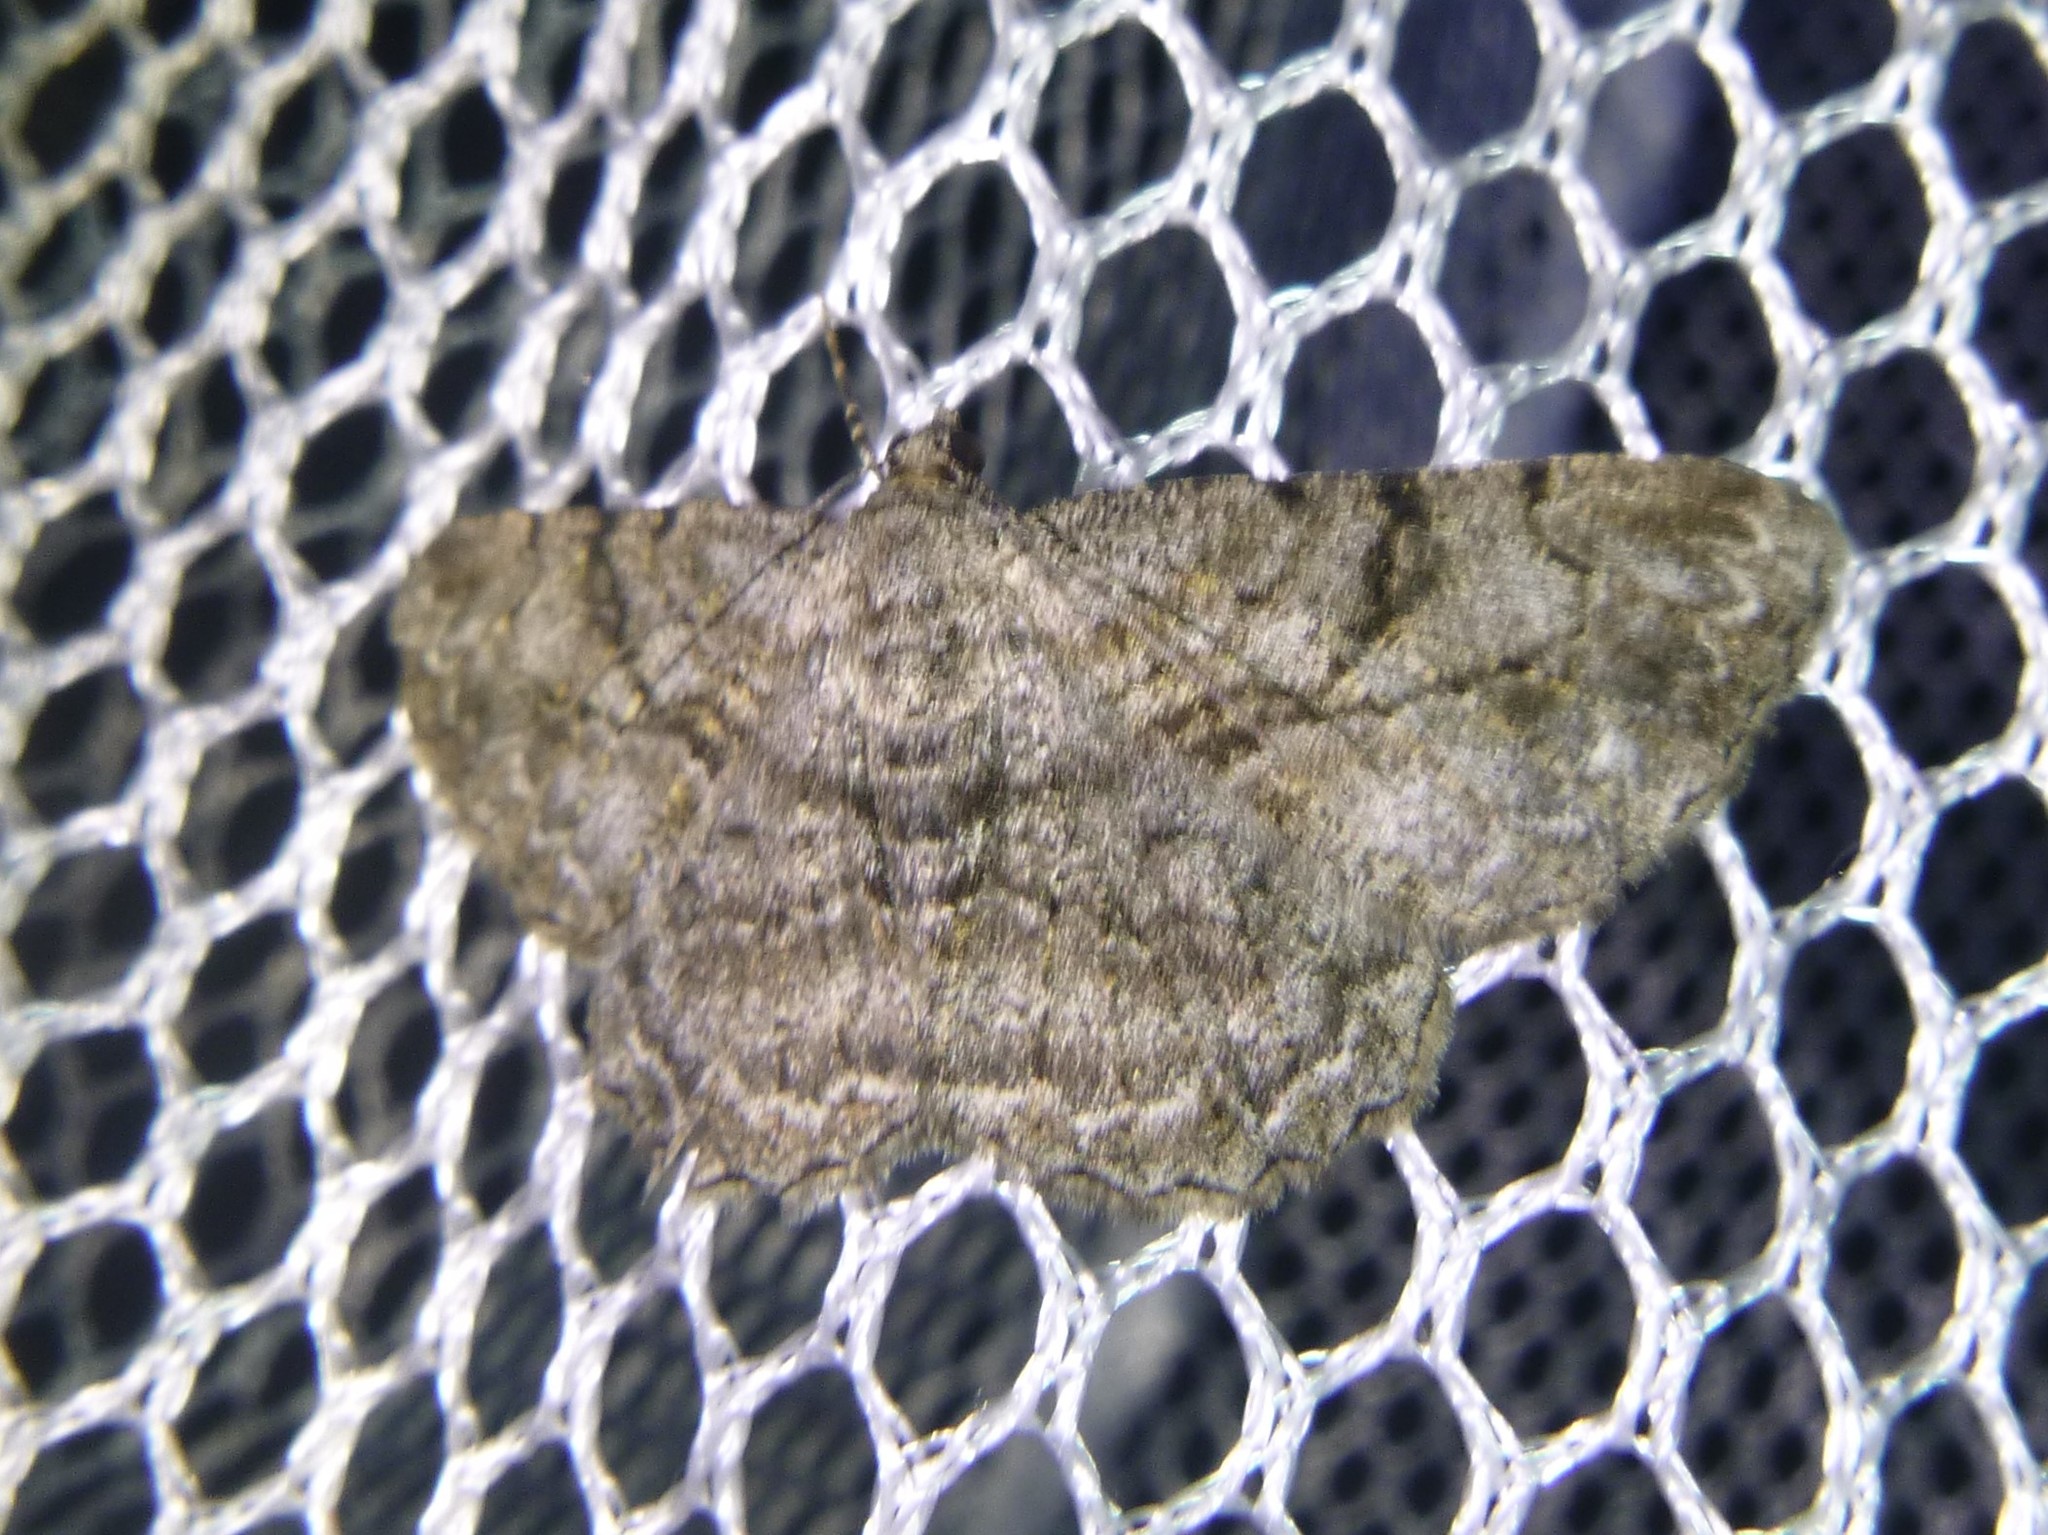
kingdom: Animalia
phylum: Arthropoda
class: Insecta
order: Lepidoptera
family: Geometridae
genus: Peribatodes
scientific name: Peribatodes rhomboidaria
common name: Willow beauty
